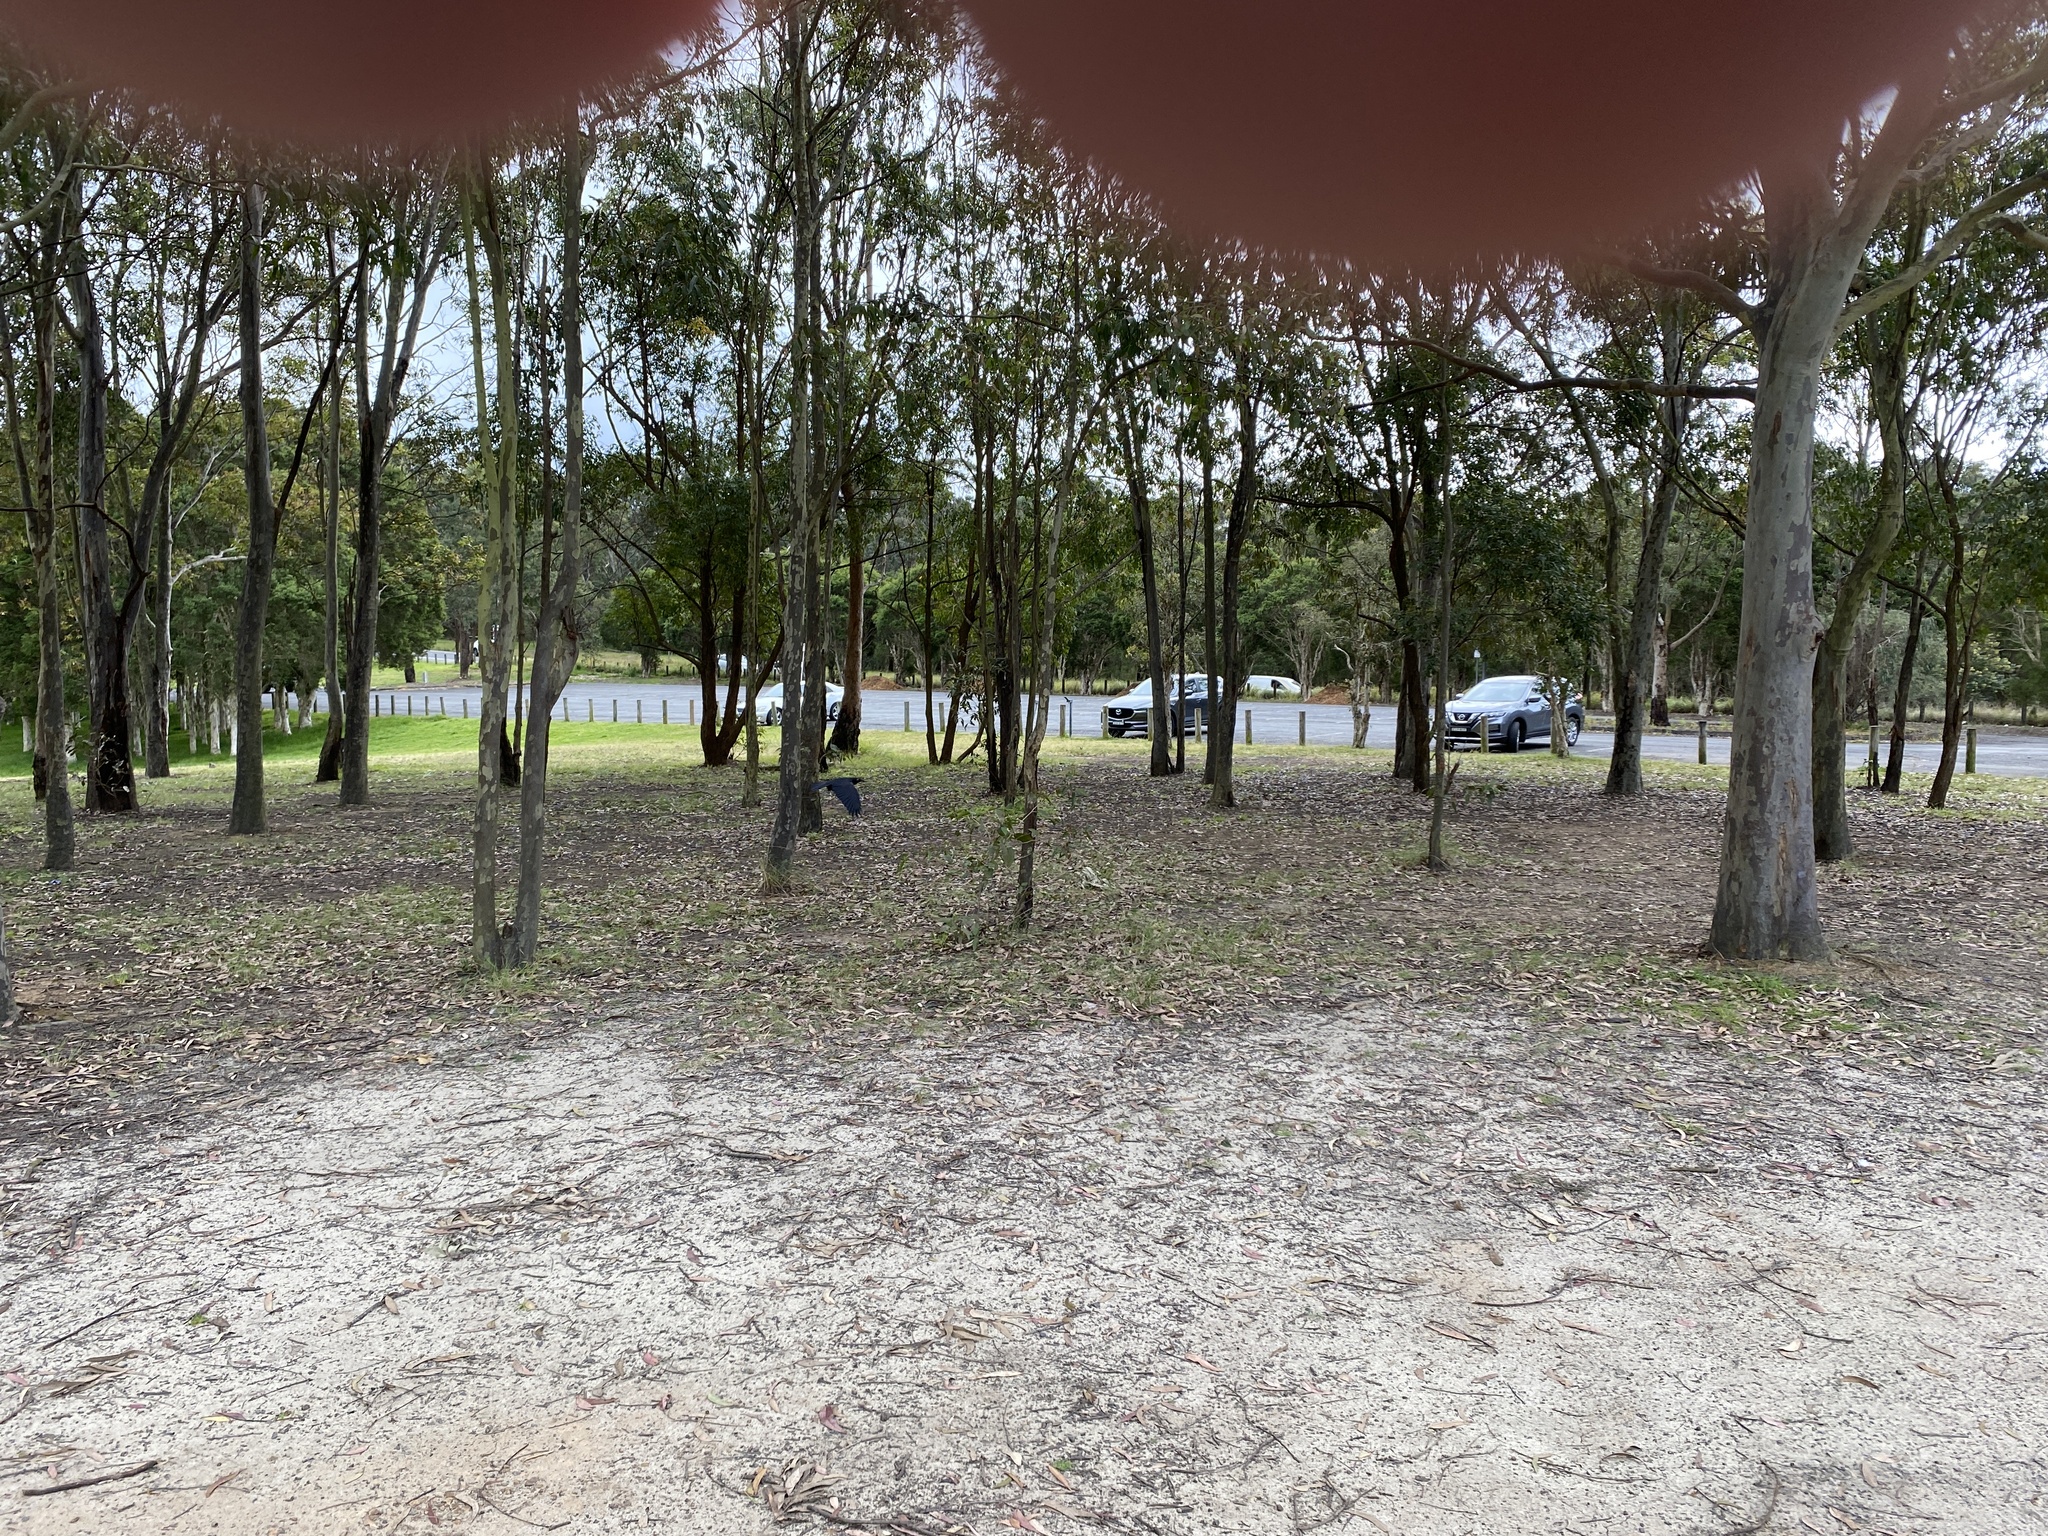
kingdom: Animalia
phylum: Chordata
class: Aves
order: Passeriformes
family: Corvidae
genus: Corvus
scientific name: Corvus coronoides
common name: Australian raven
